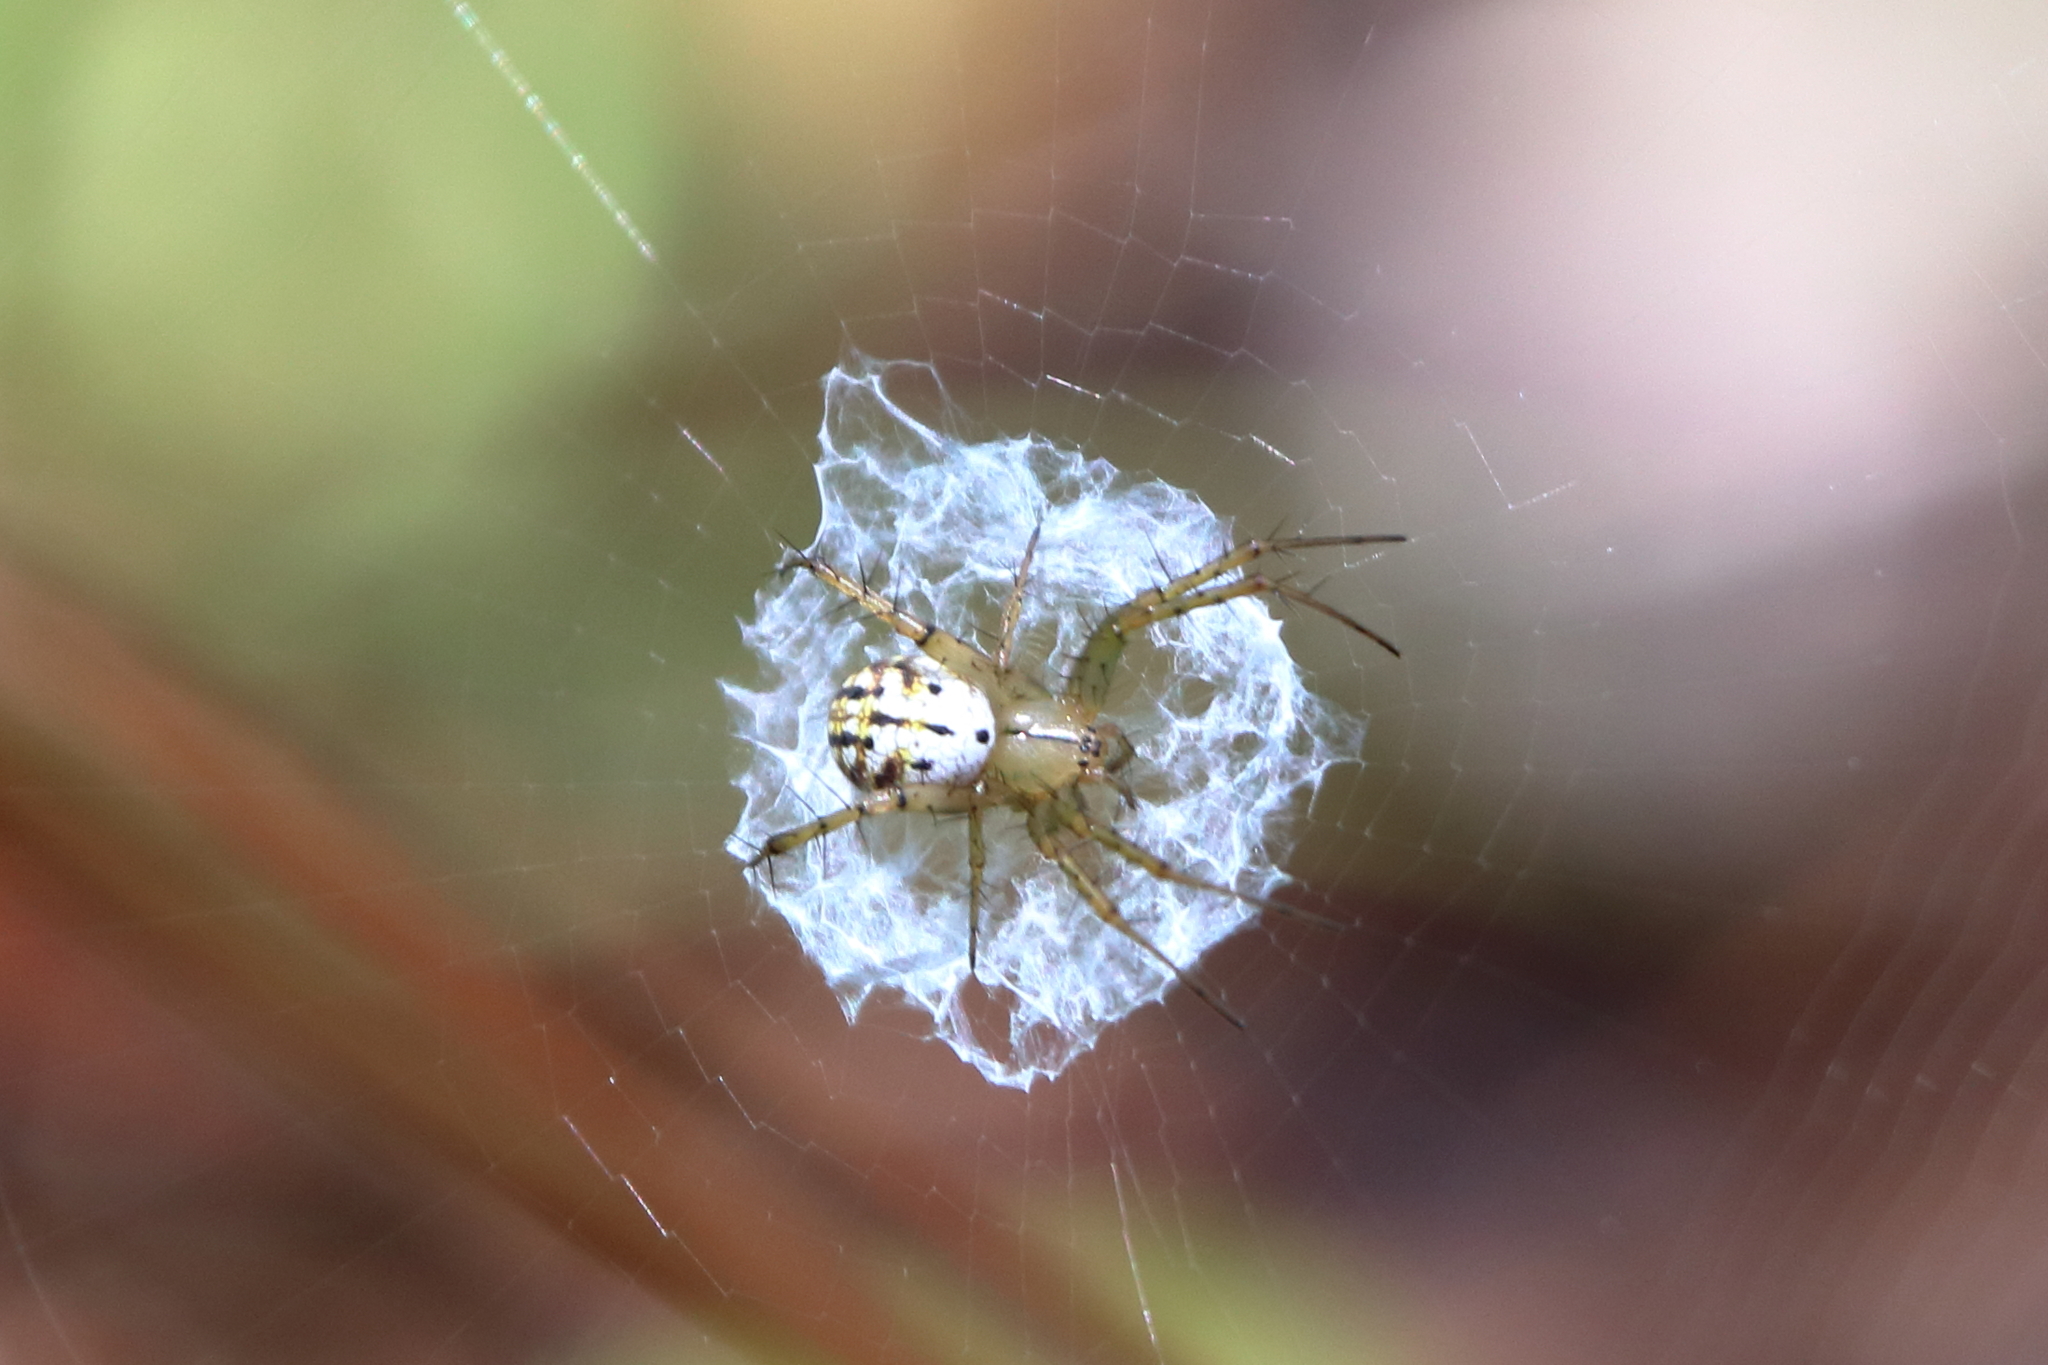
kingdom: Animalia
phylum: Arthropoda
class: Arachnida
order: Araneae
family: Araneidae
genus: Mangora
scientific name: Mangora gibberosa
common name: Lined orbweaver
